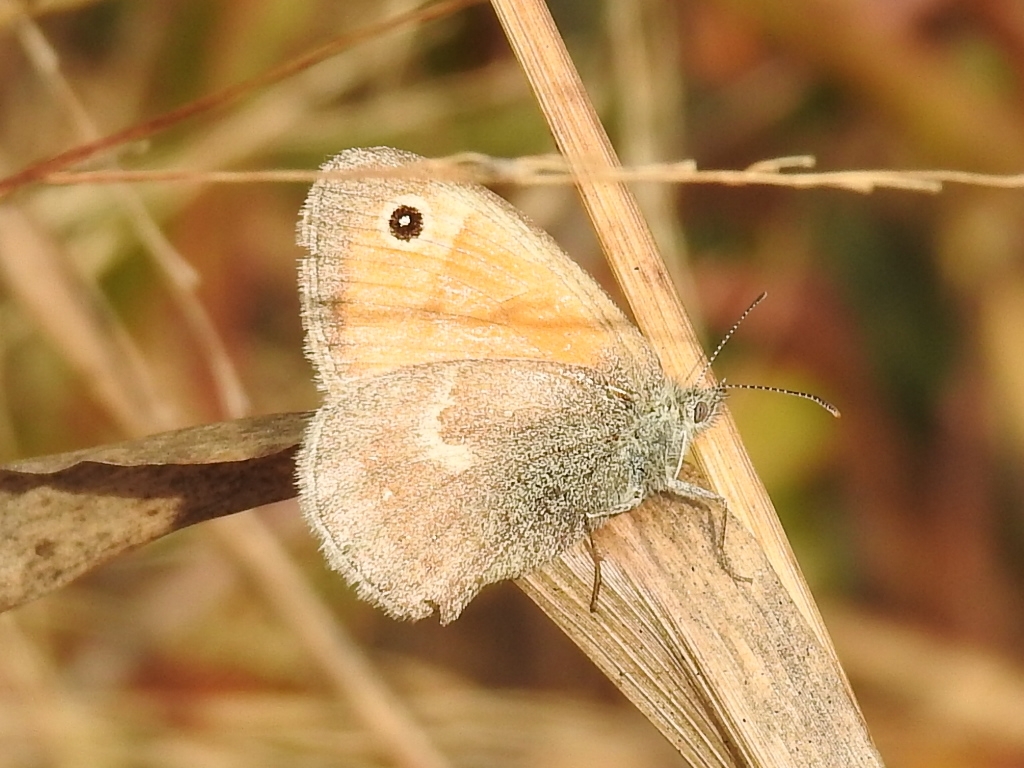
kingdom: Animalia
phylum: Arthropoda
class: Insecta
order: Lepidoptera
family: Nymphalidae
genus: Coenonympha
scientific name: Coenonympha pamphilus
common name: Small heath
